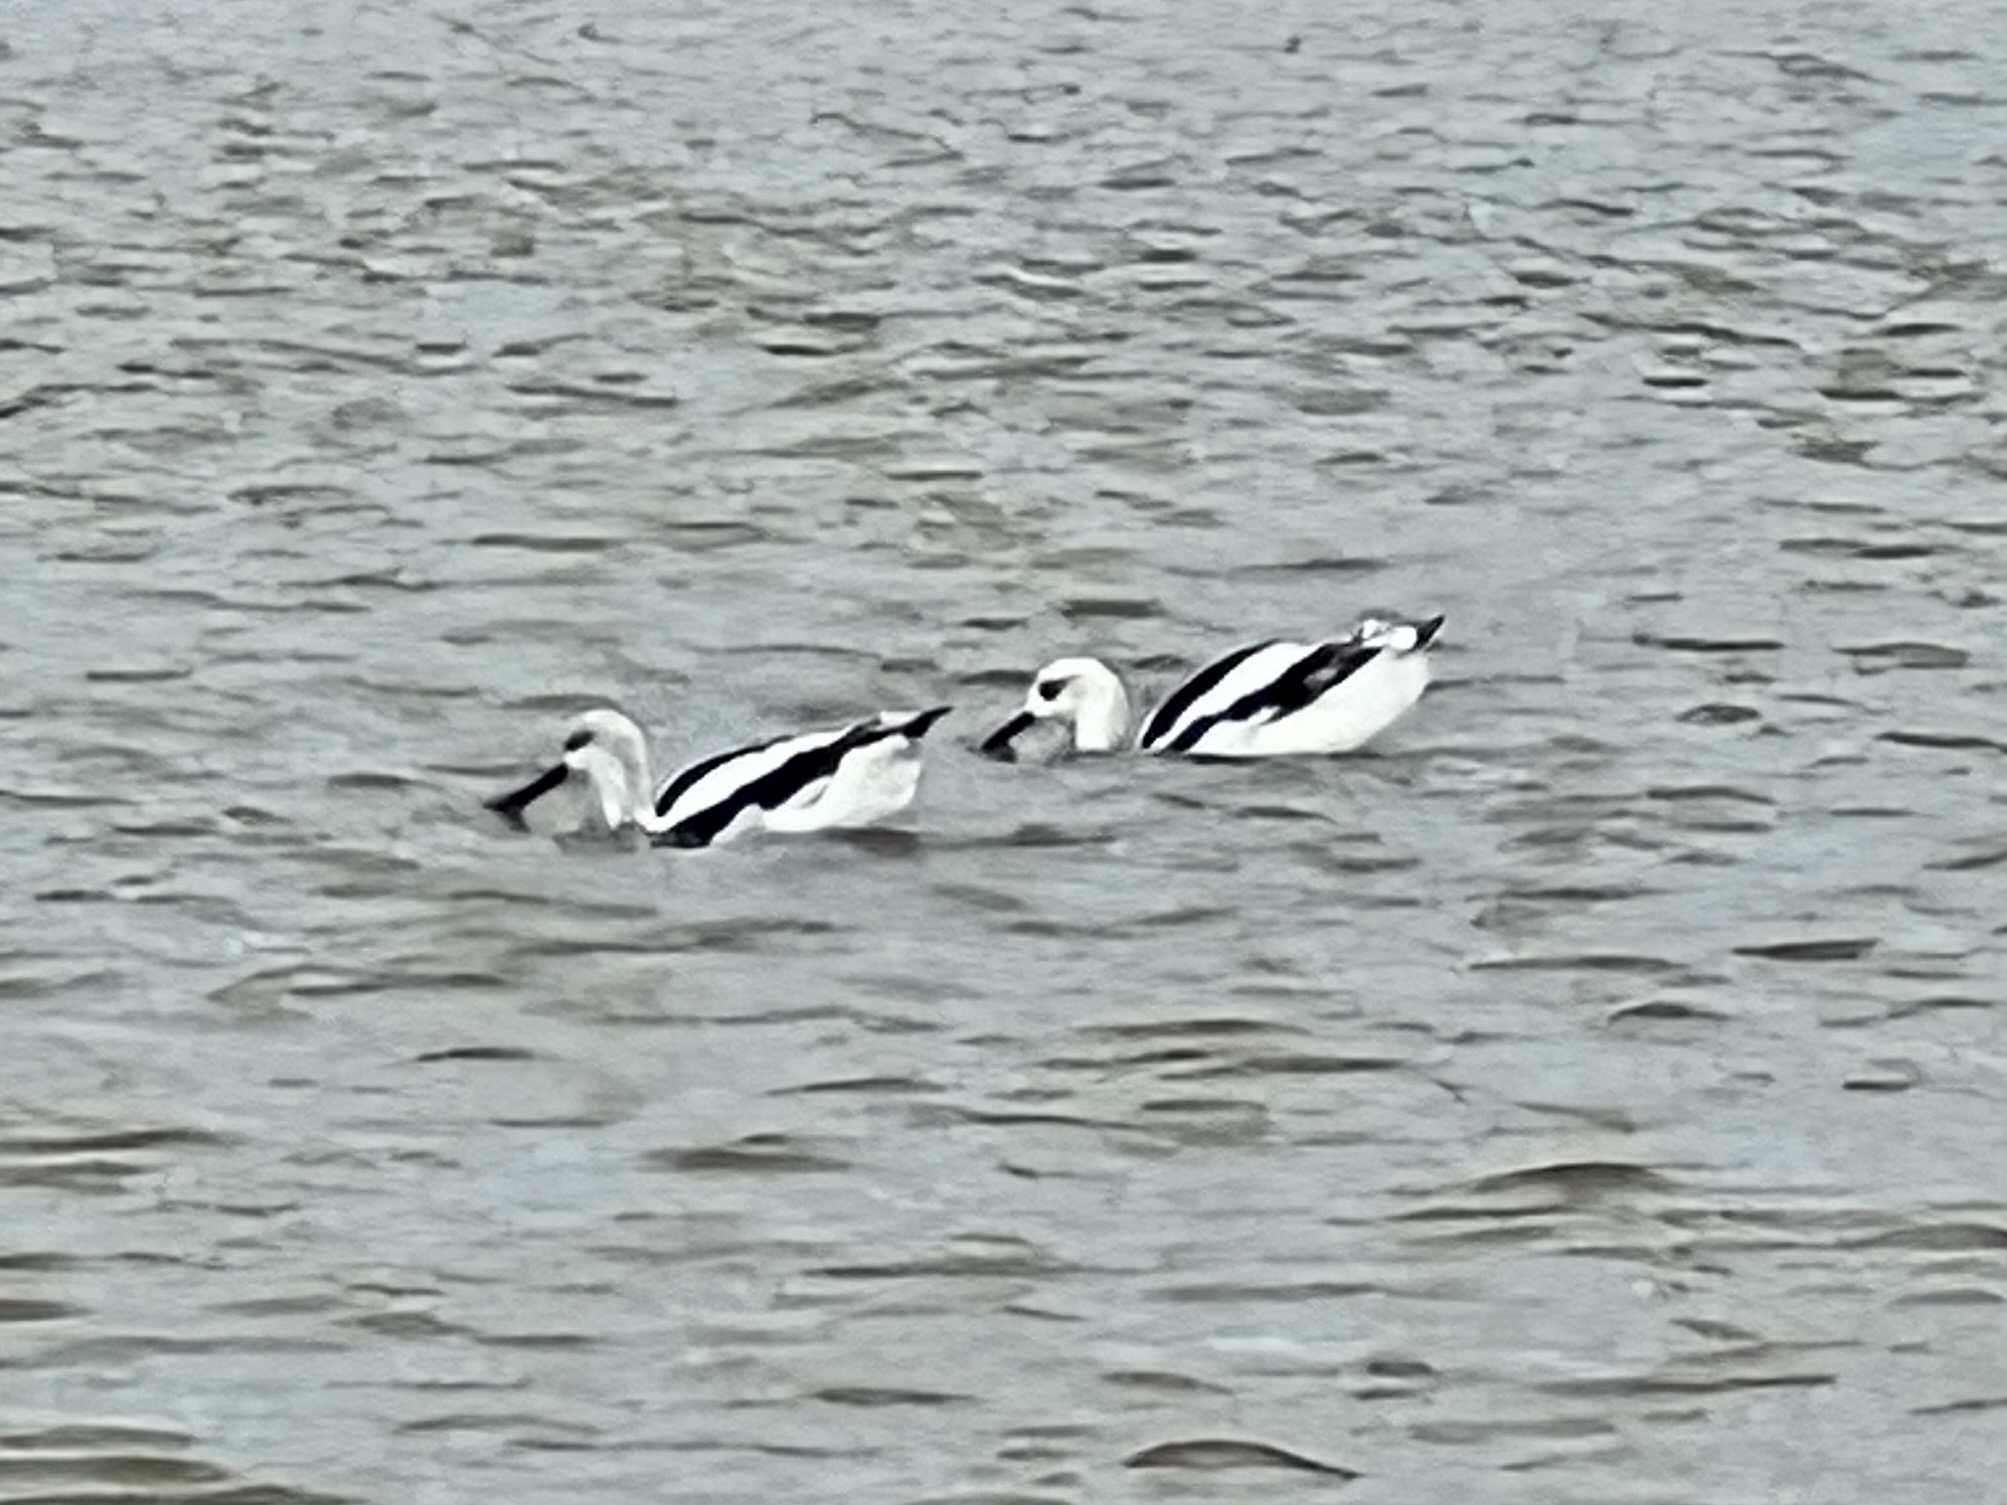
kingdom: Animalia
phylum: Chordata
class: Aves
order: Charadriiformes
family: Recurvirostridae
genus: Recurvirostra
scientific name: Recurvirostra americana
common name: American avocet
